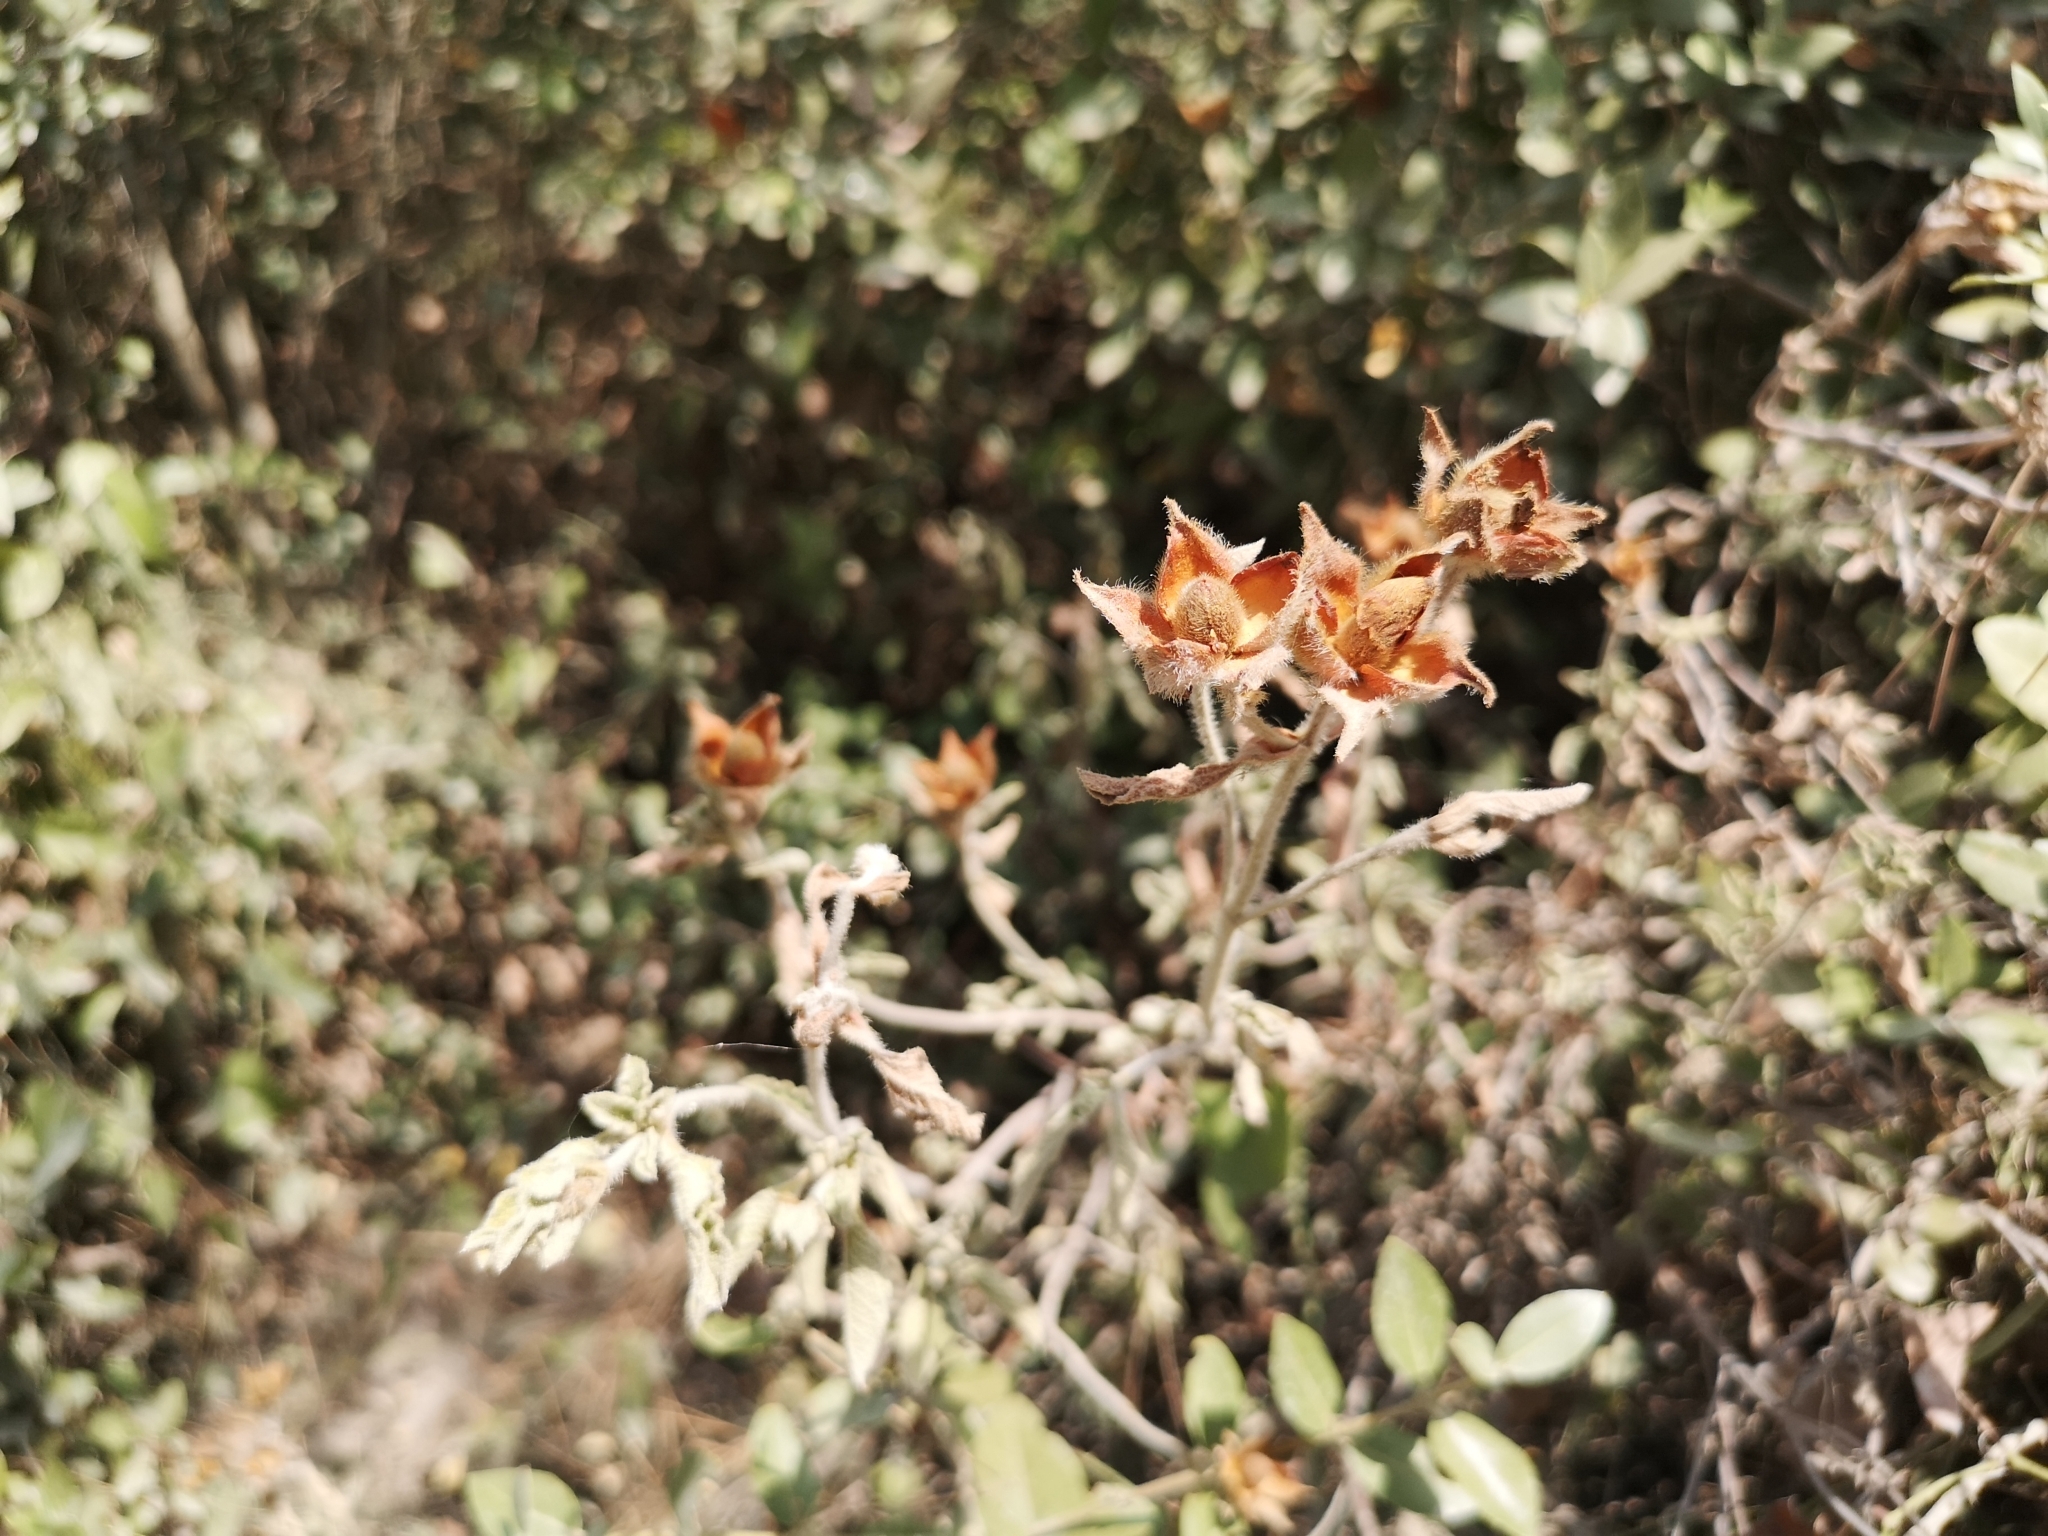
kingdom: Plantae
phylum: Tracheophyta
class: Magnoliopsida
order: Malvales
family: Cistaceae
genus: Cistus
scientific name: Cistus creticus
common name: Cretan rockrose
